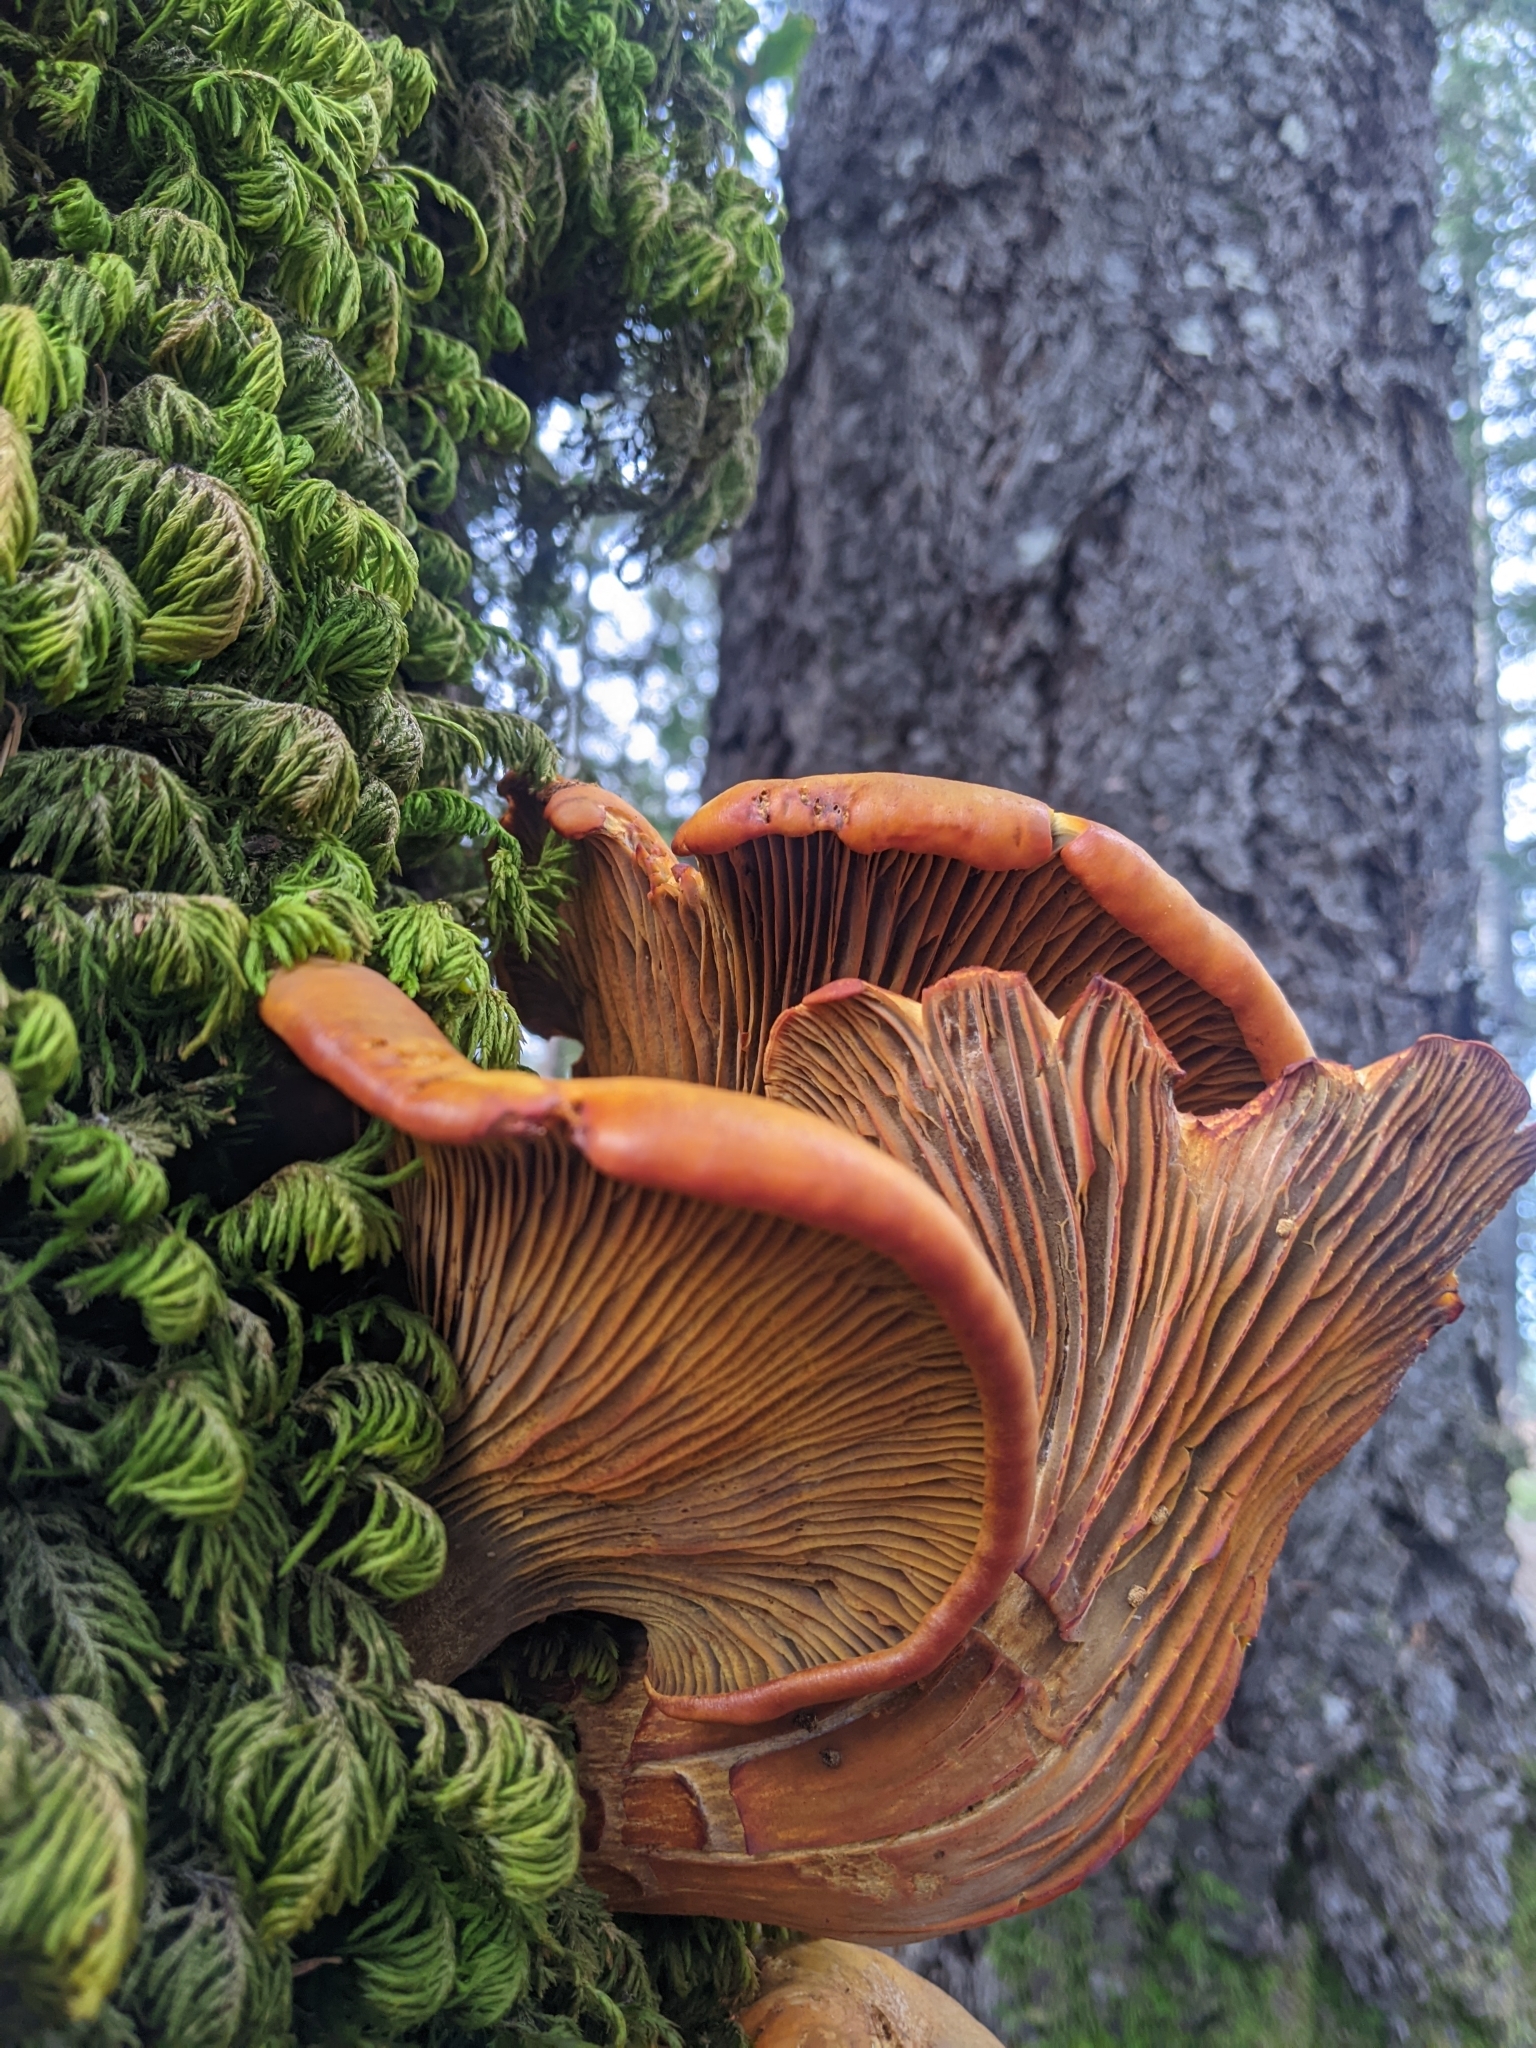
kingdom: Fungi
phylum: Basidiomycota
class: Agaricomycetes
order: Agaricales
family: Omphalotaceae
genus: Omphalotus
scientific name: Omphalotus olivascens
